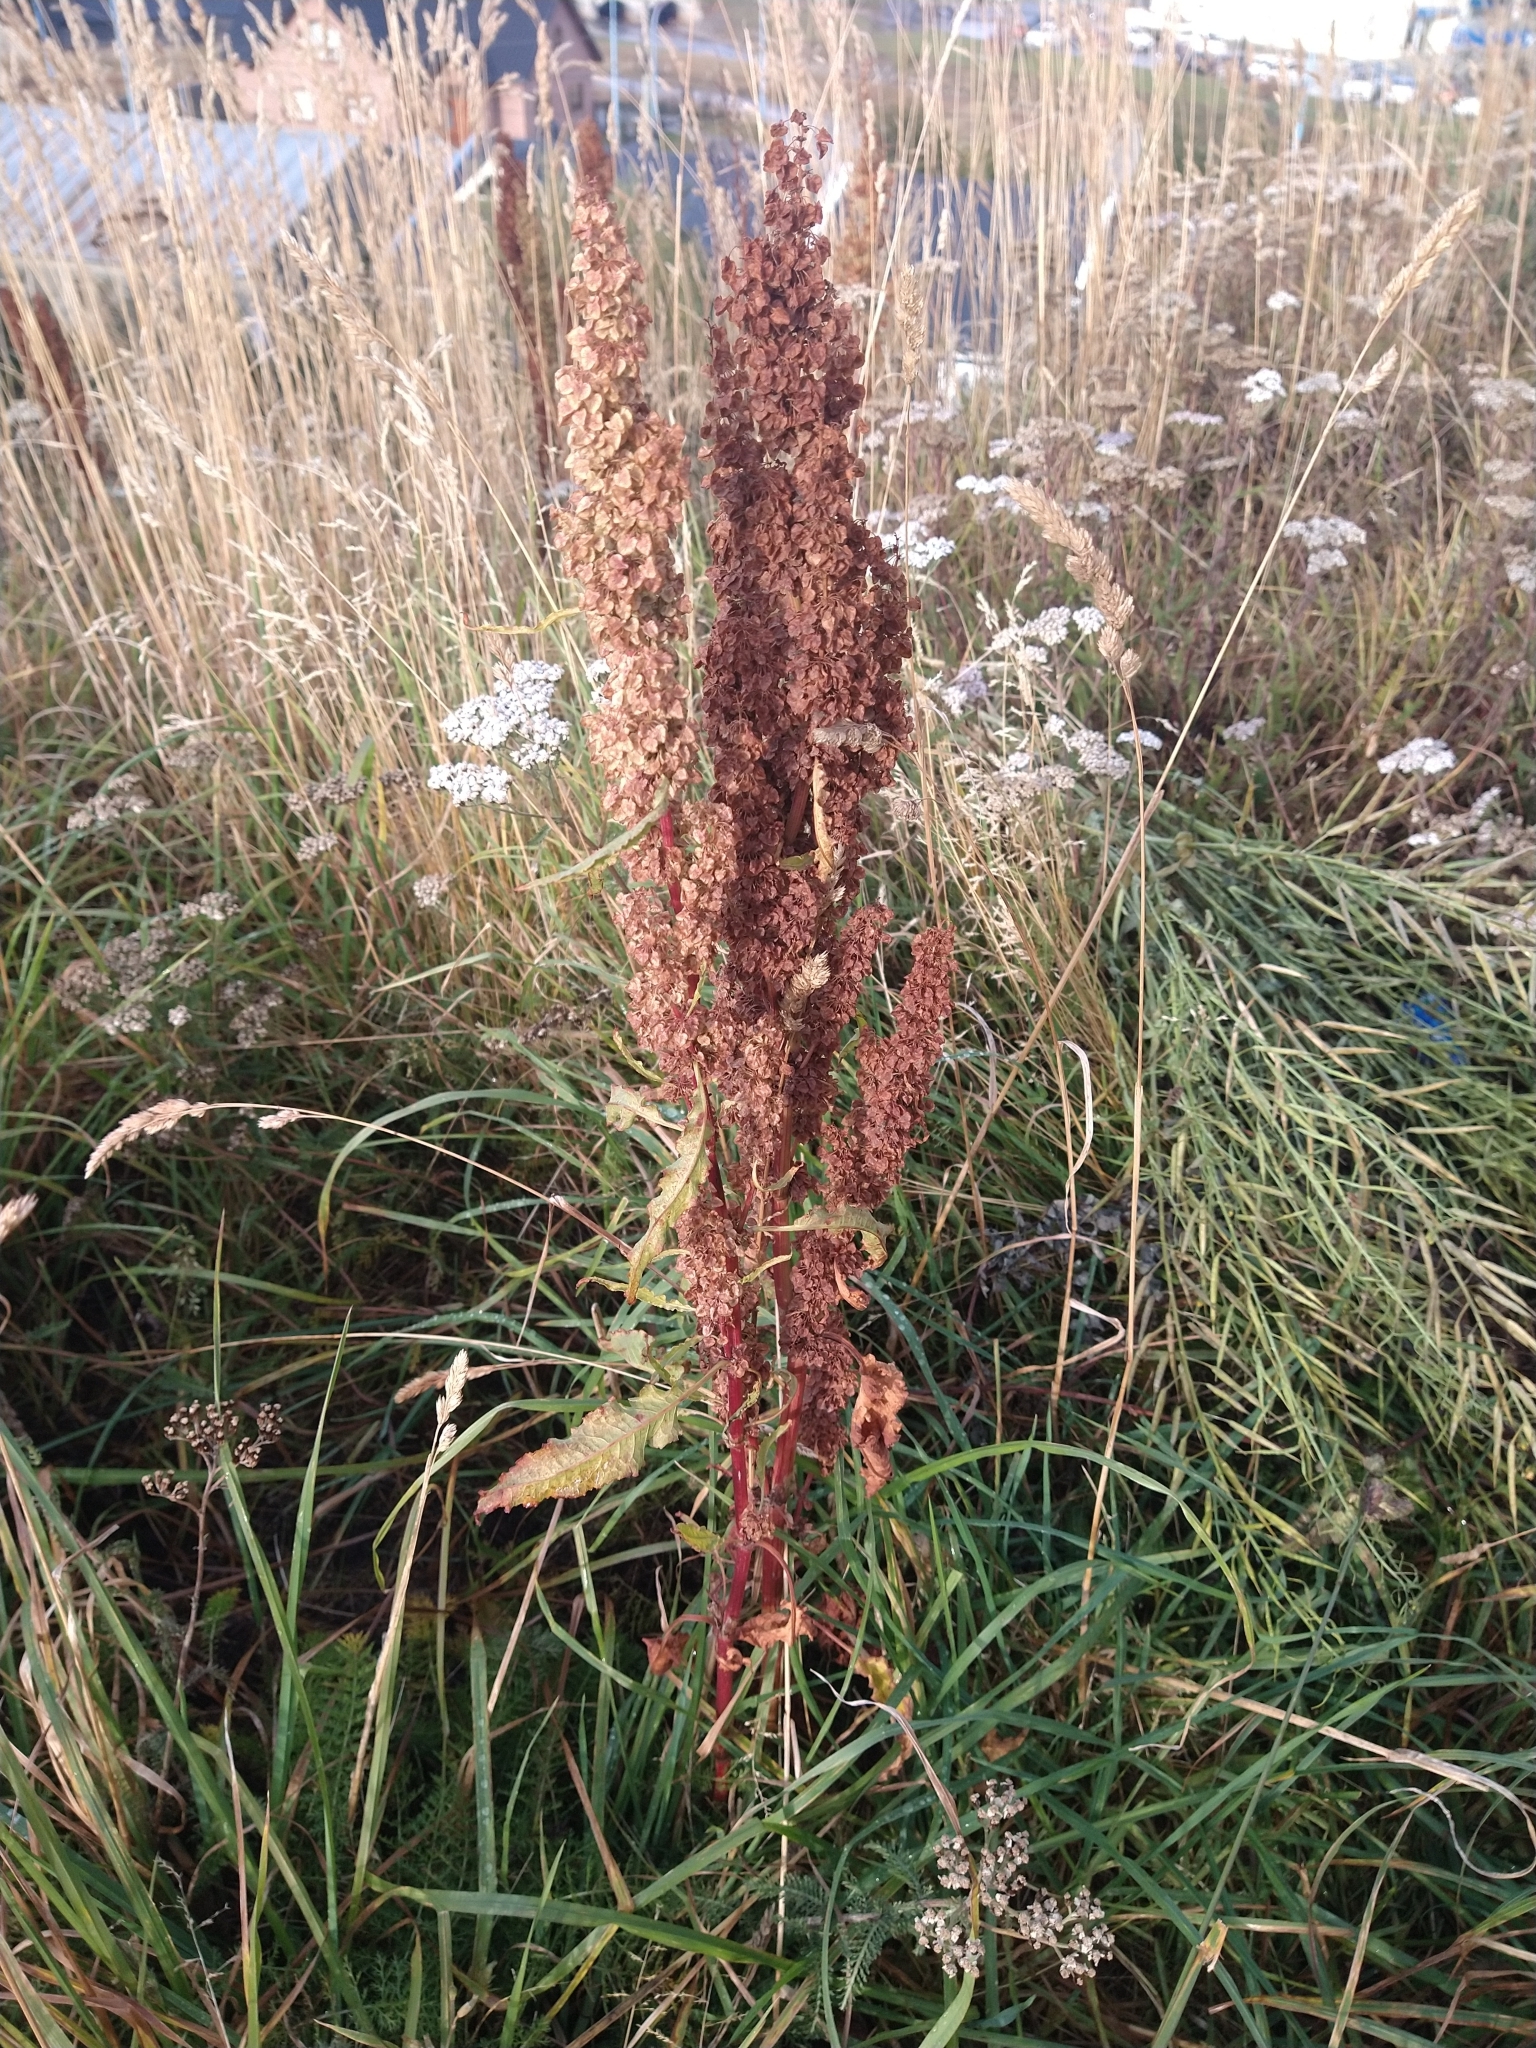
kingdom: Plantae
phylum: Tracheophyta
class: Magnoliopsida
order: Caryophyllales
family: Polygonaceae
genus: Rumex
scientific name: Rumex crispus
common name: Curled dock
